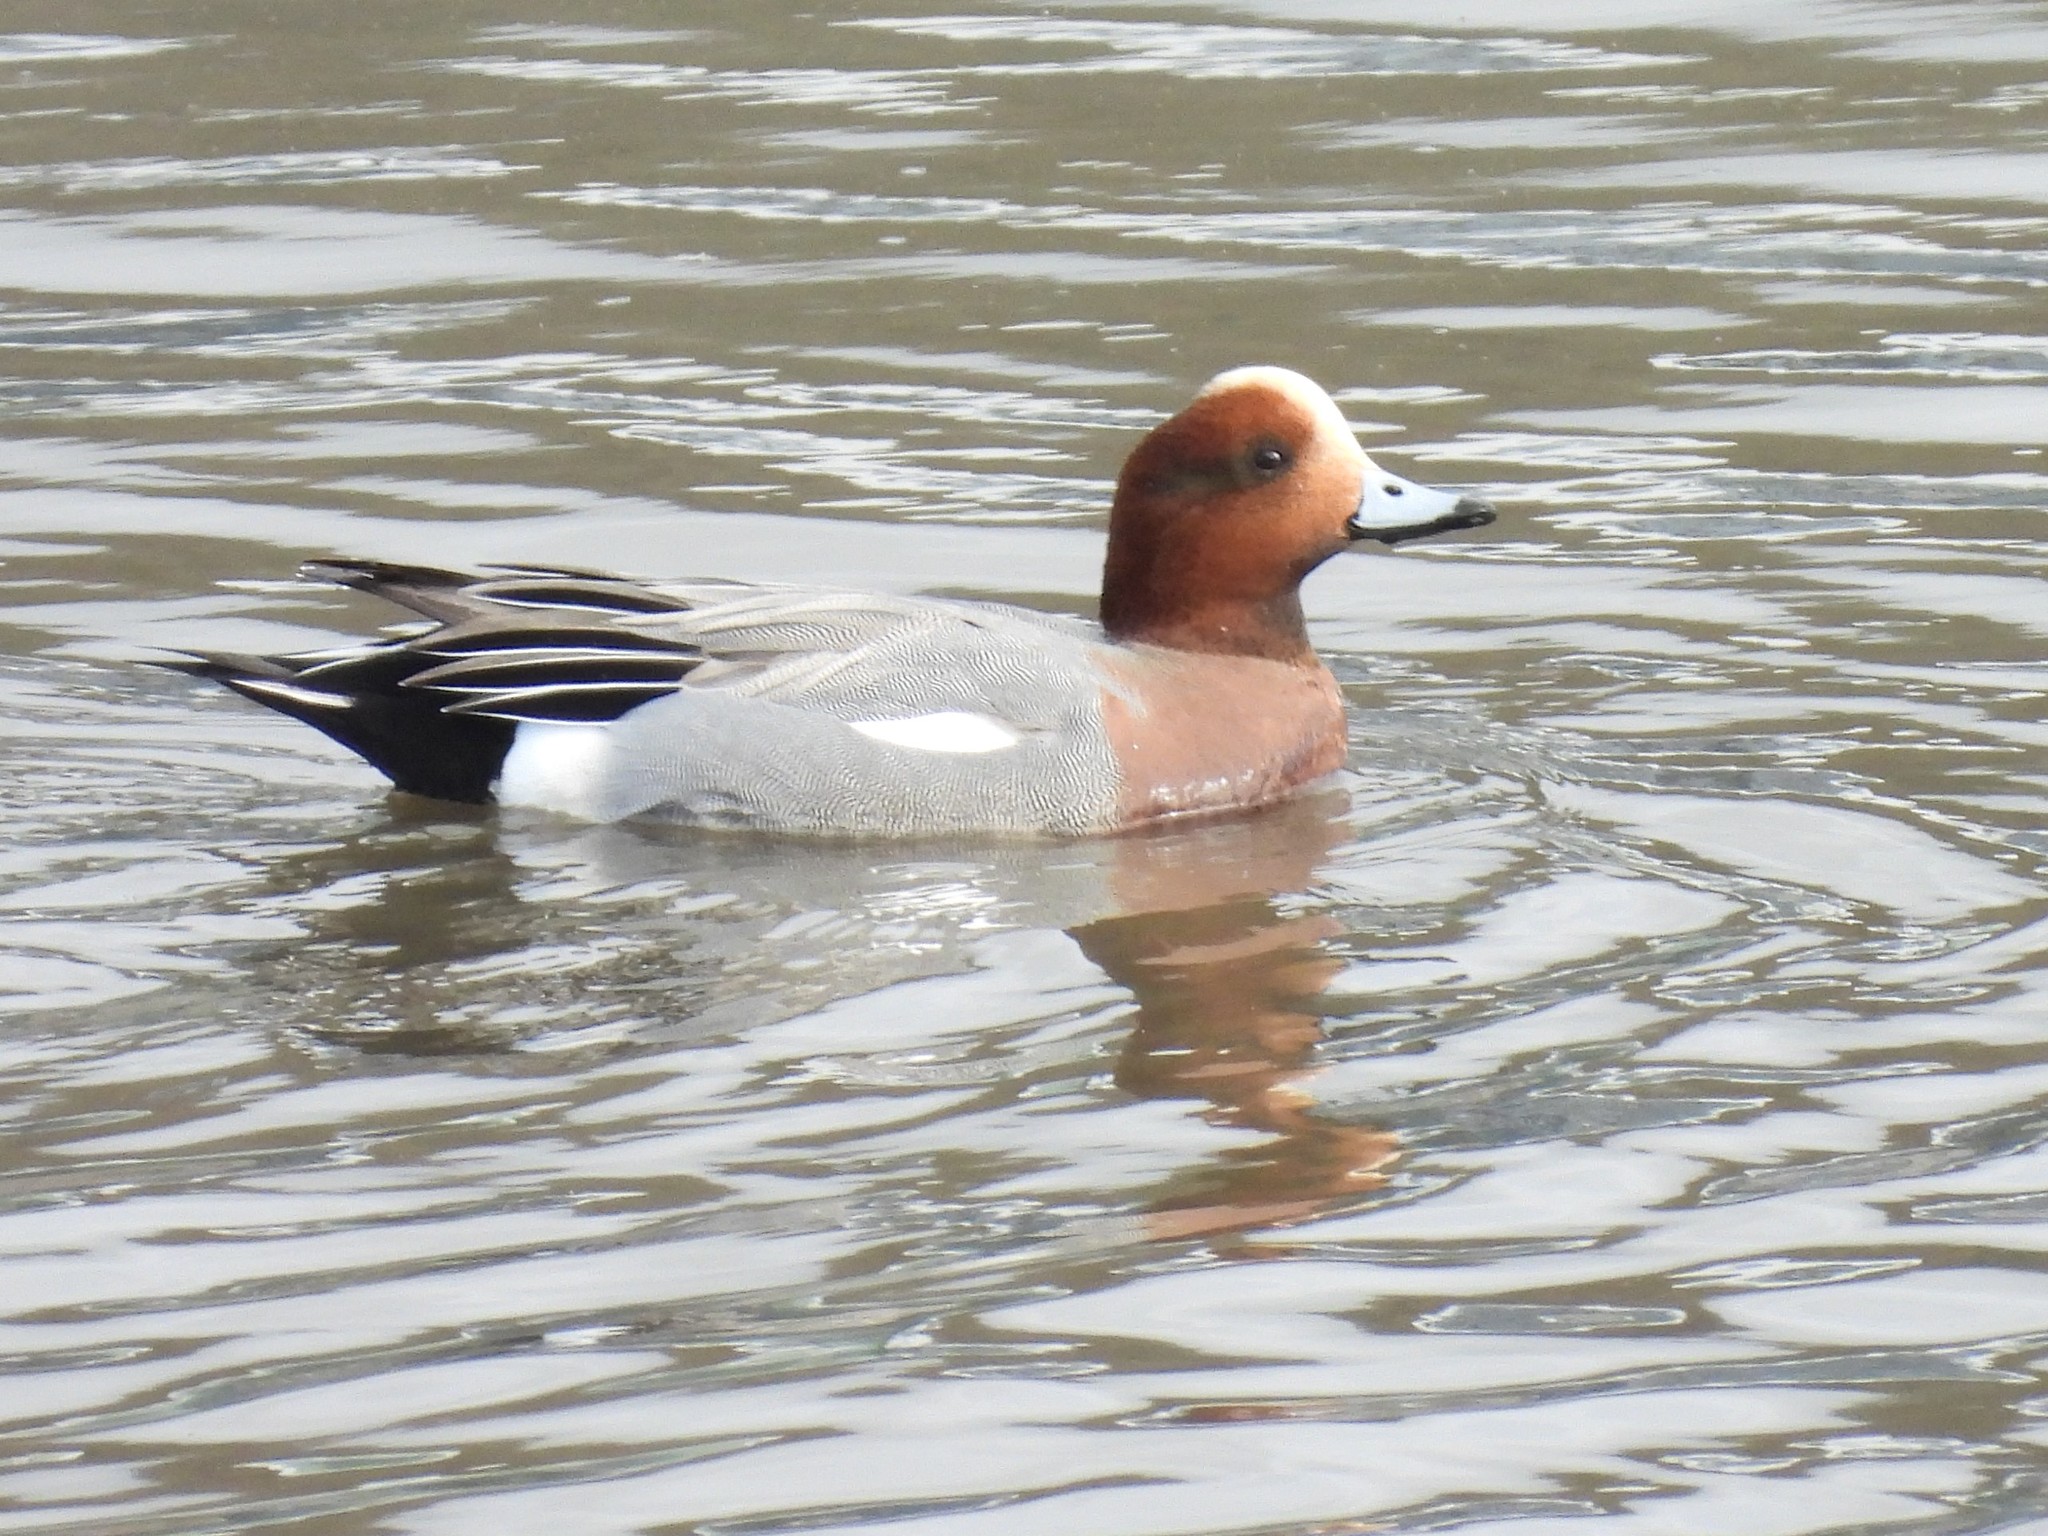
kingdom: Animalia
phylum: Chordata
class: Aves
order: Anseriformes
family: Anatidae
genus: Mareca
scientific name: Mareca penelope
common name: Eurasian wigeon
